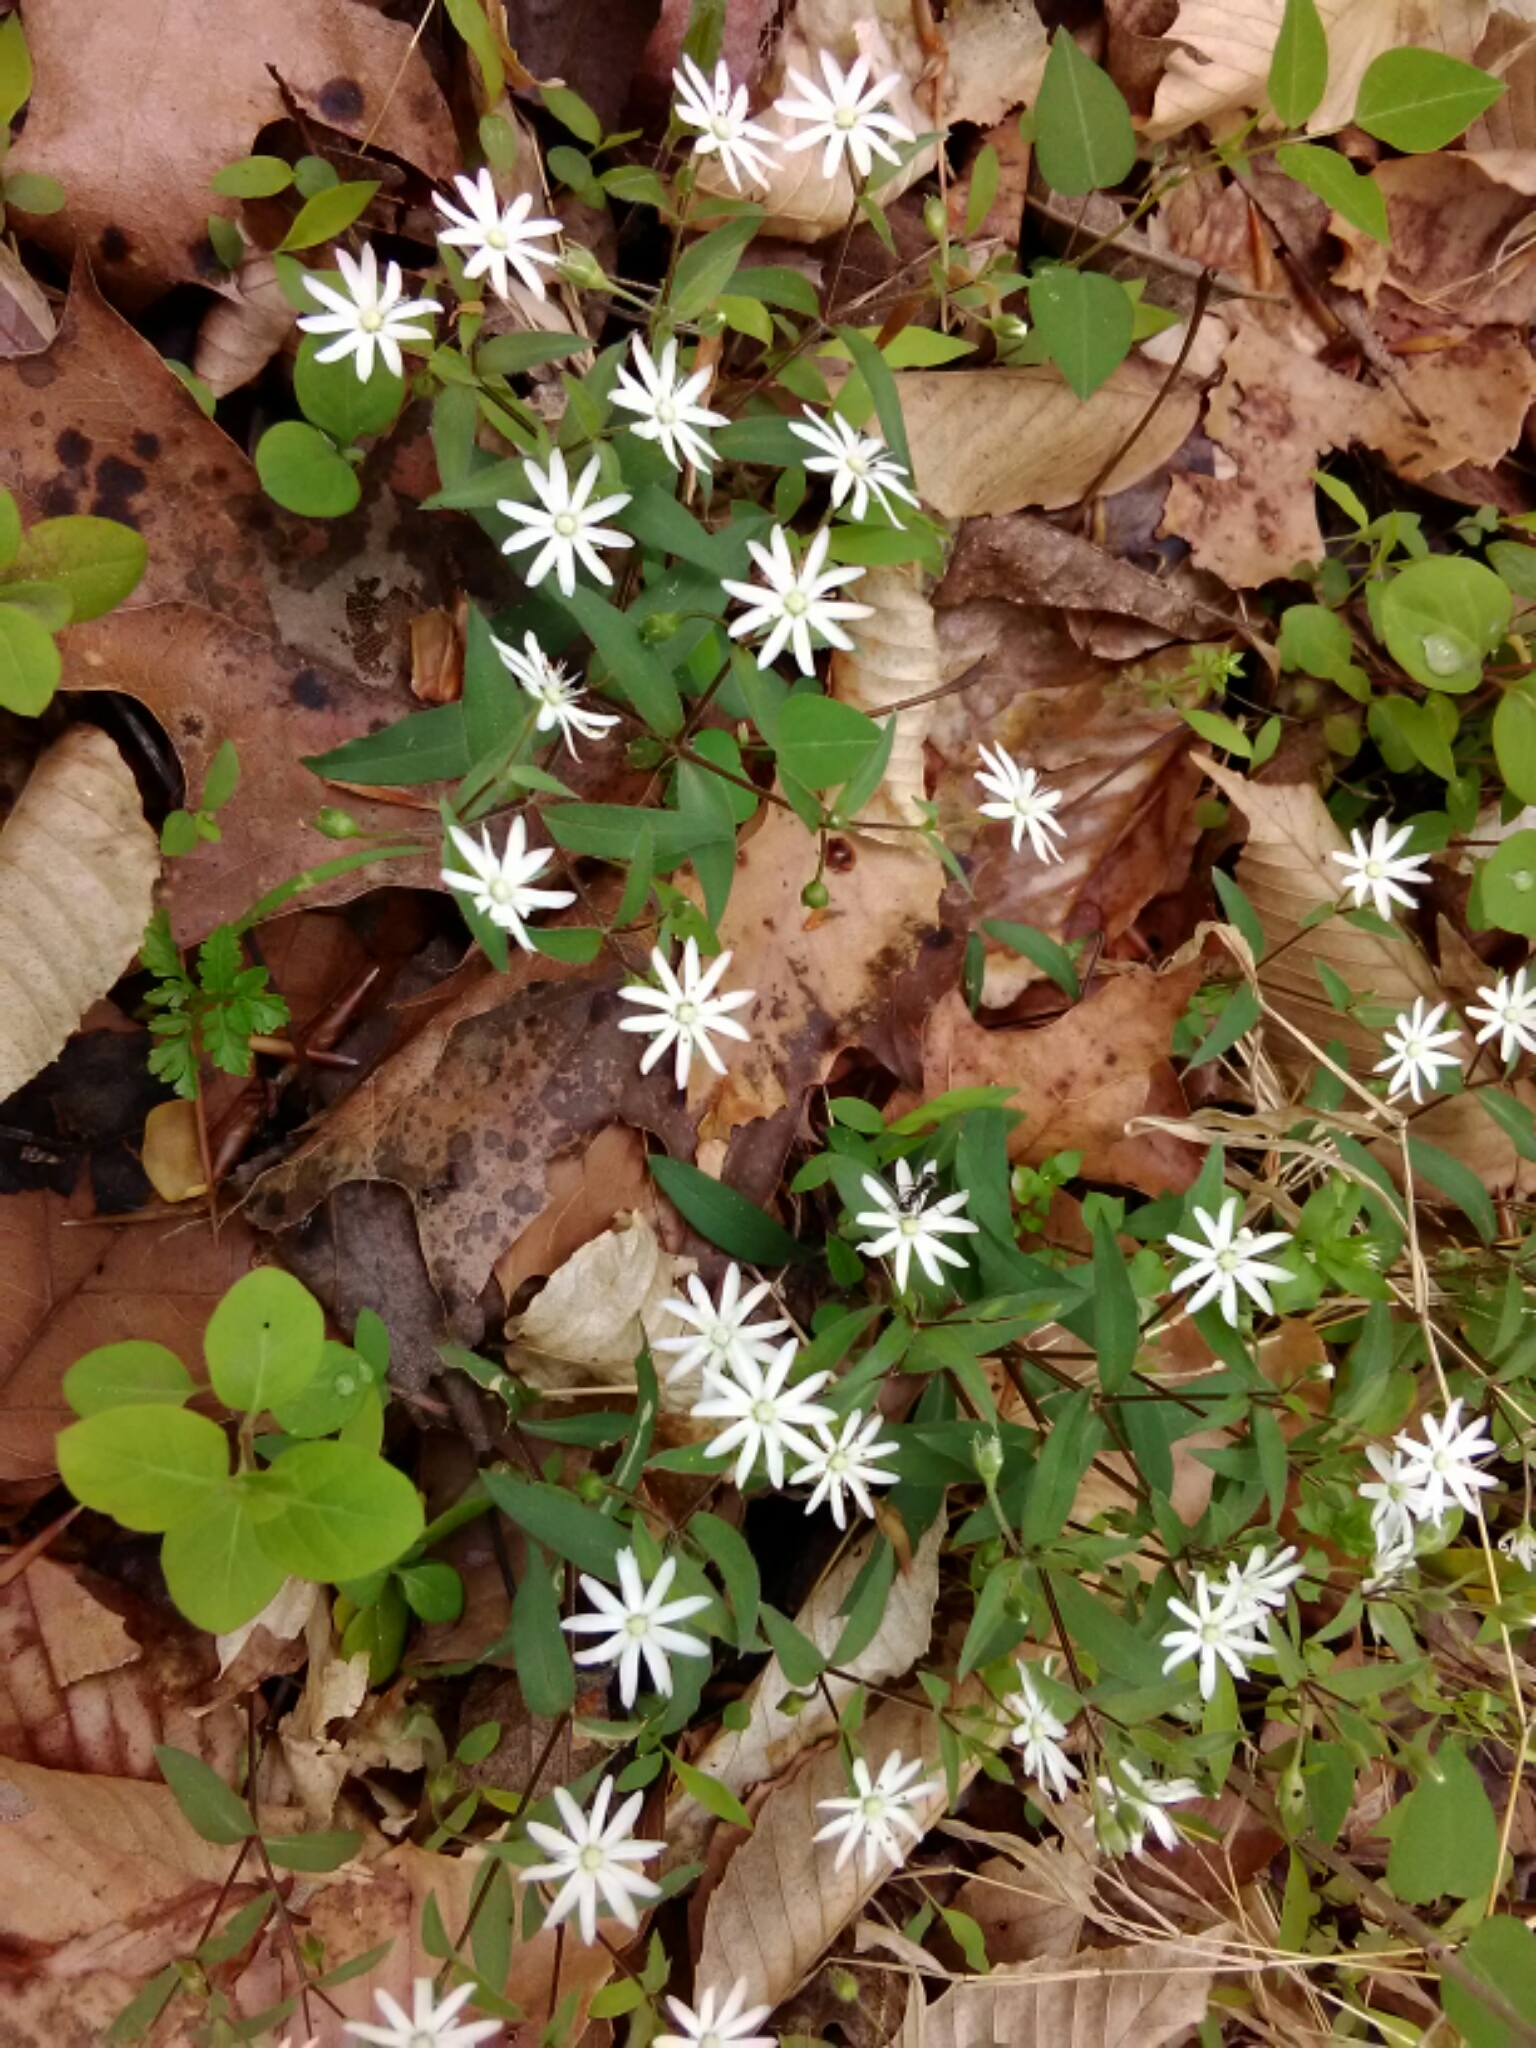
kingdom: Plantae
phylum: Tracheophyta
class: Magnoliopsida
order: Caryophyllales
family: Caryophyllaceae
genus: Stellaria
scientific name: Stellaria pubera
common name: Star chickweed
